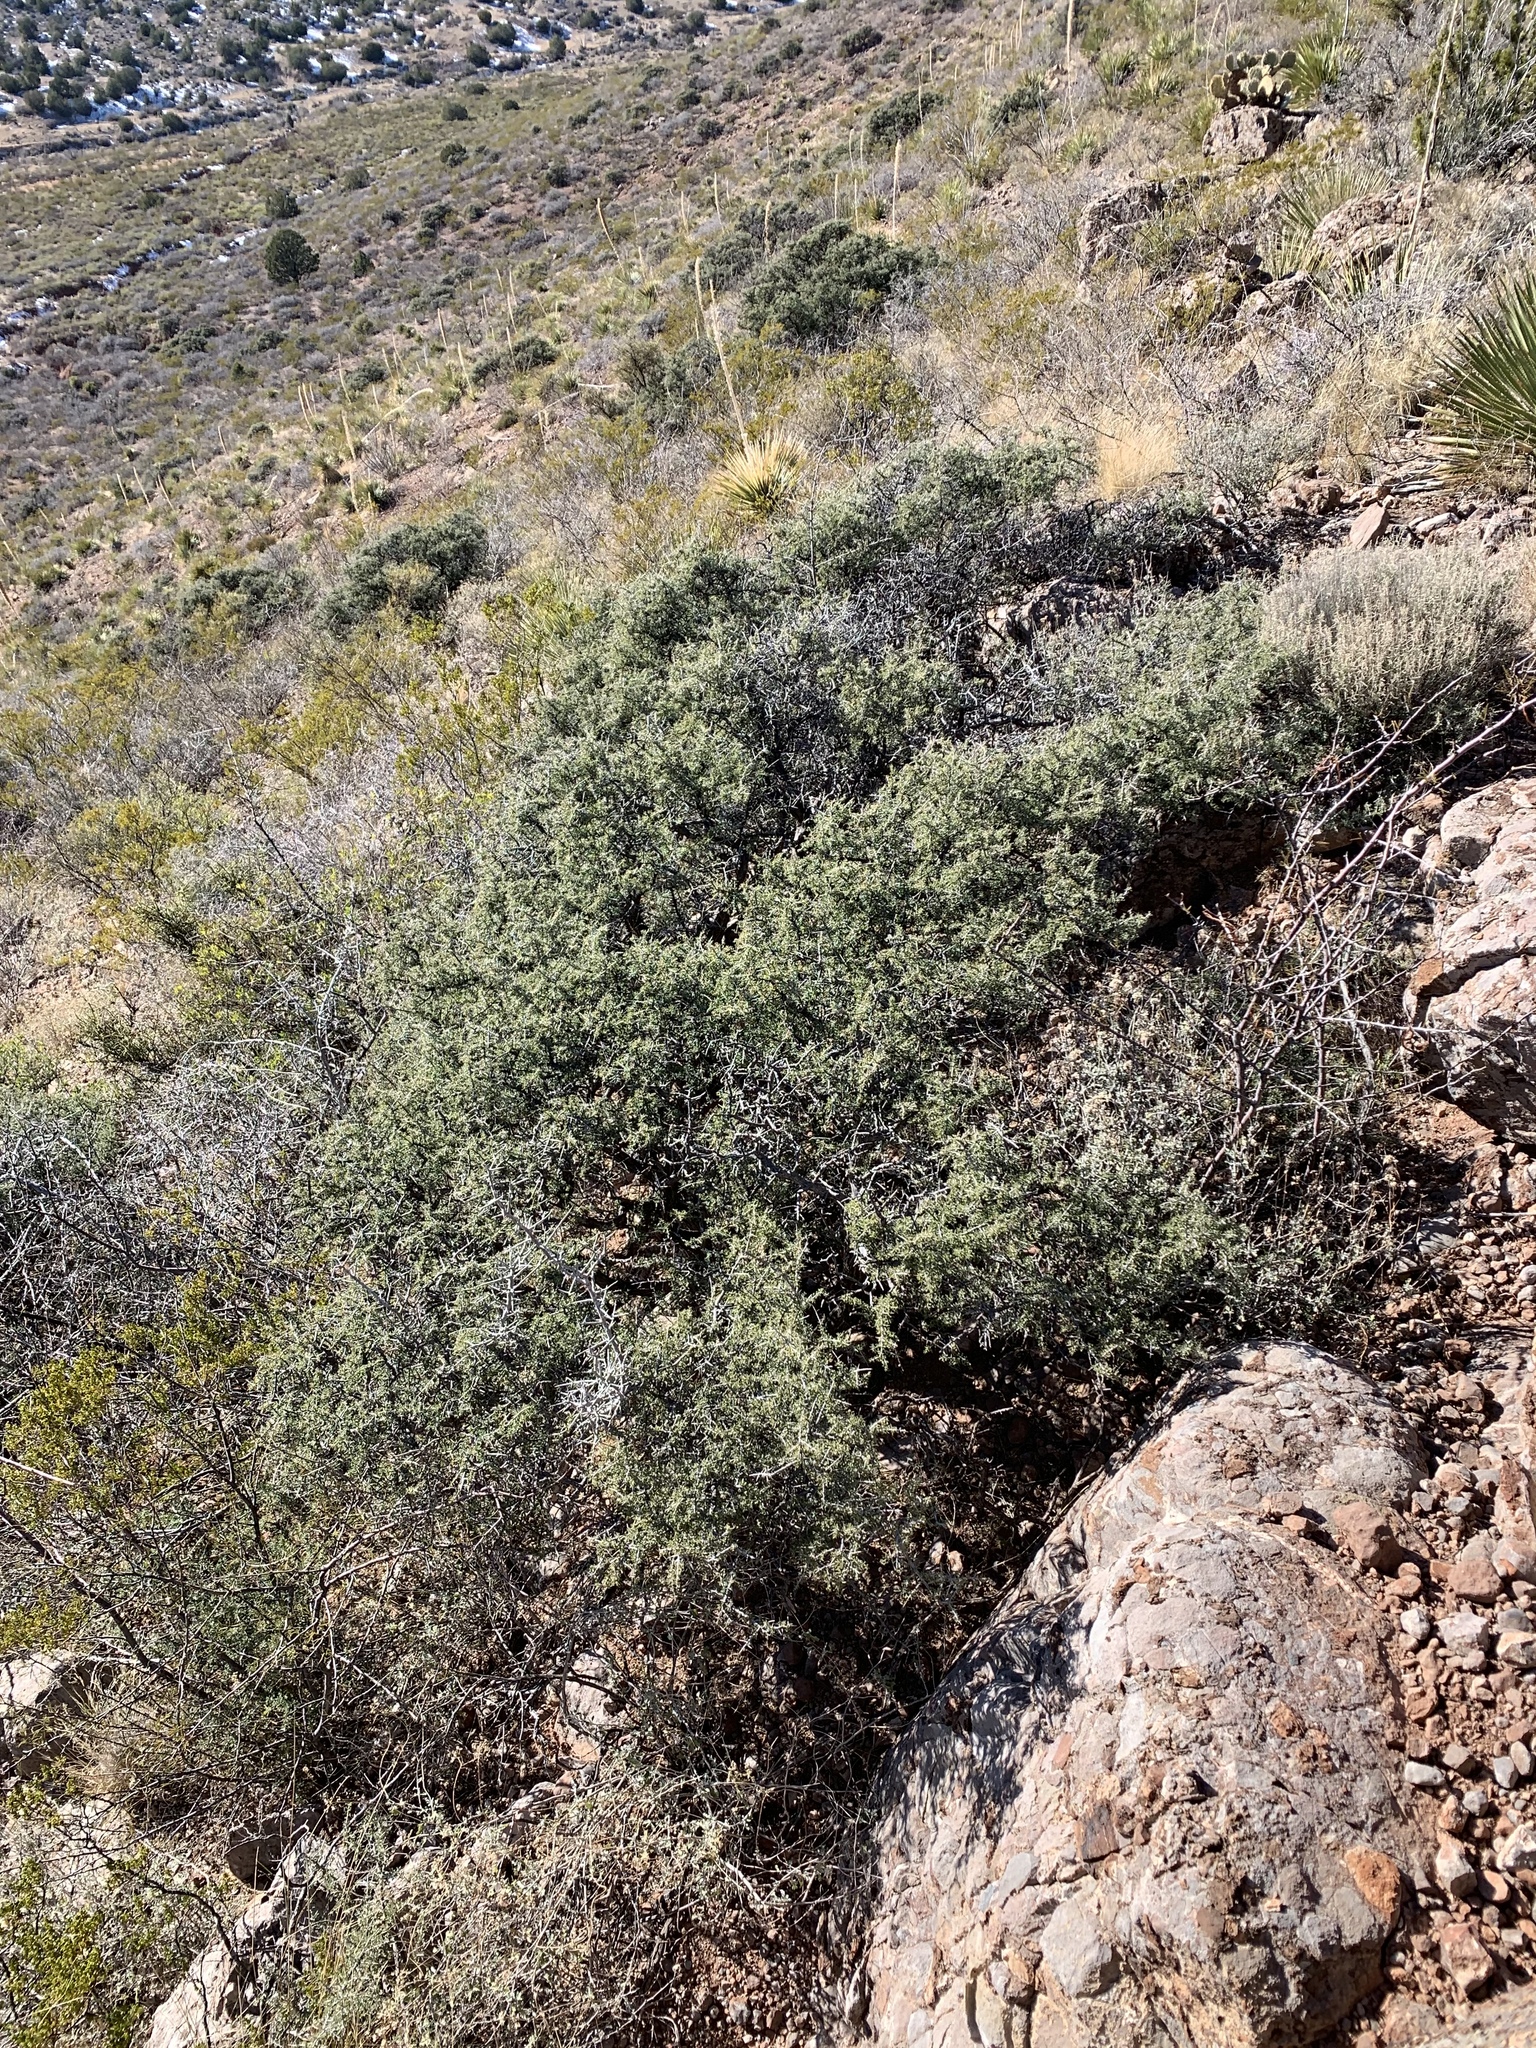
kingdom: Plantae
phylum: Tracheophyta
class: Magnoliopsida
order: Rosales
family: Rhamnaceae
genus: Condalia
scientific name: Condalia warnockii
